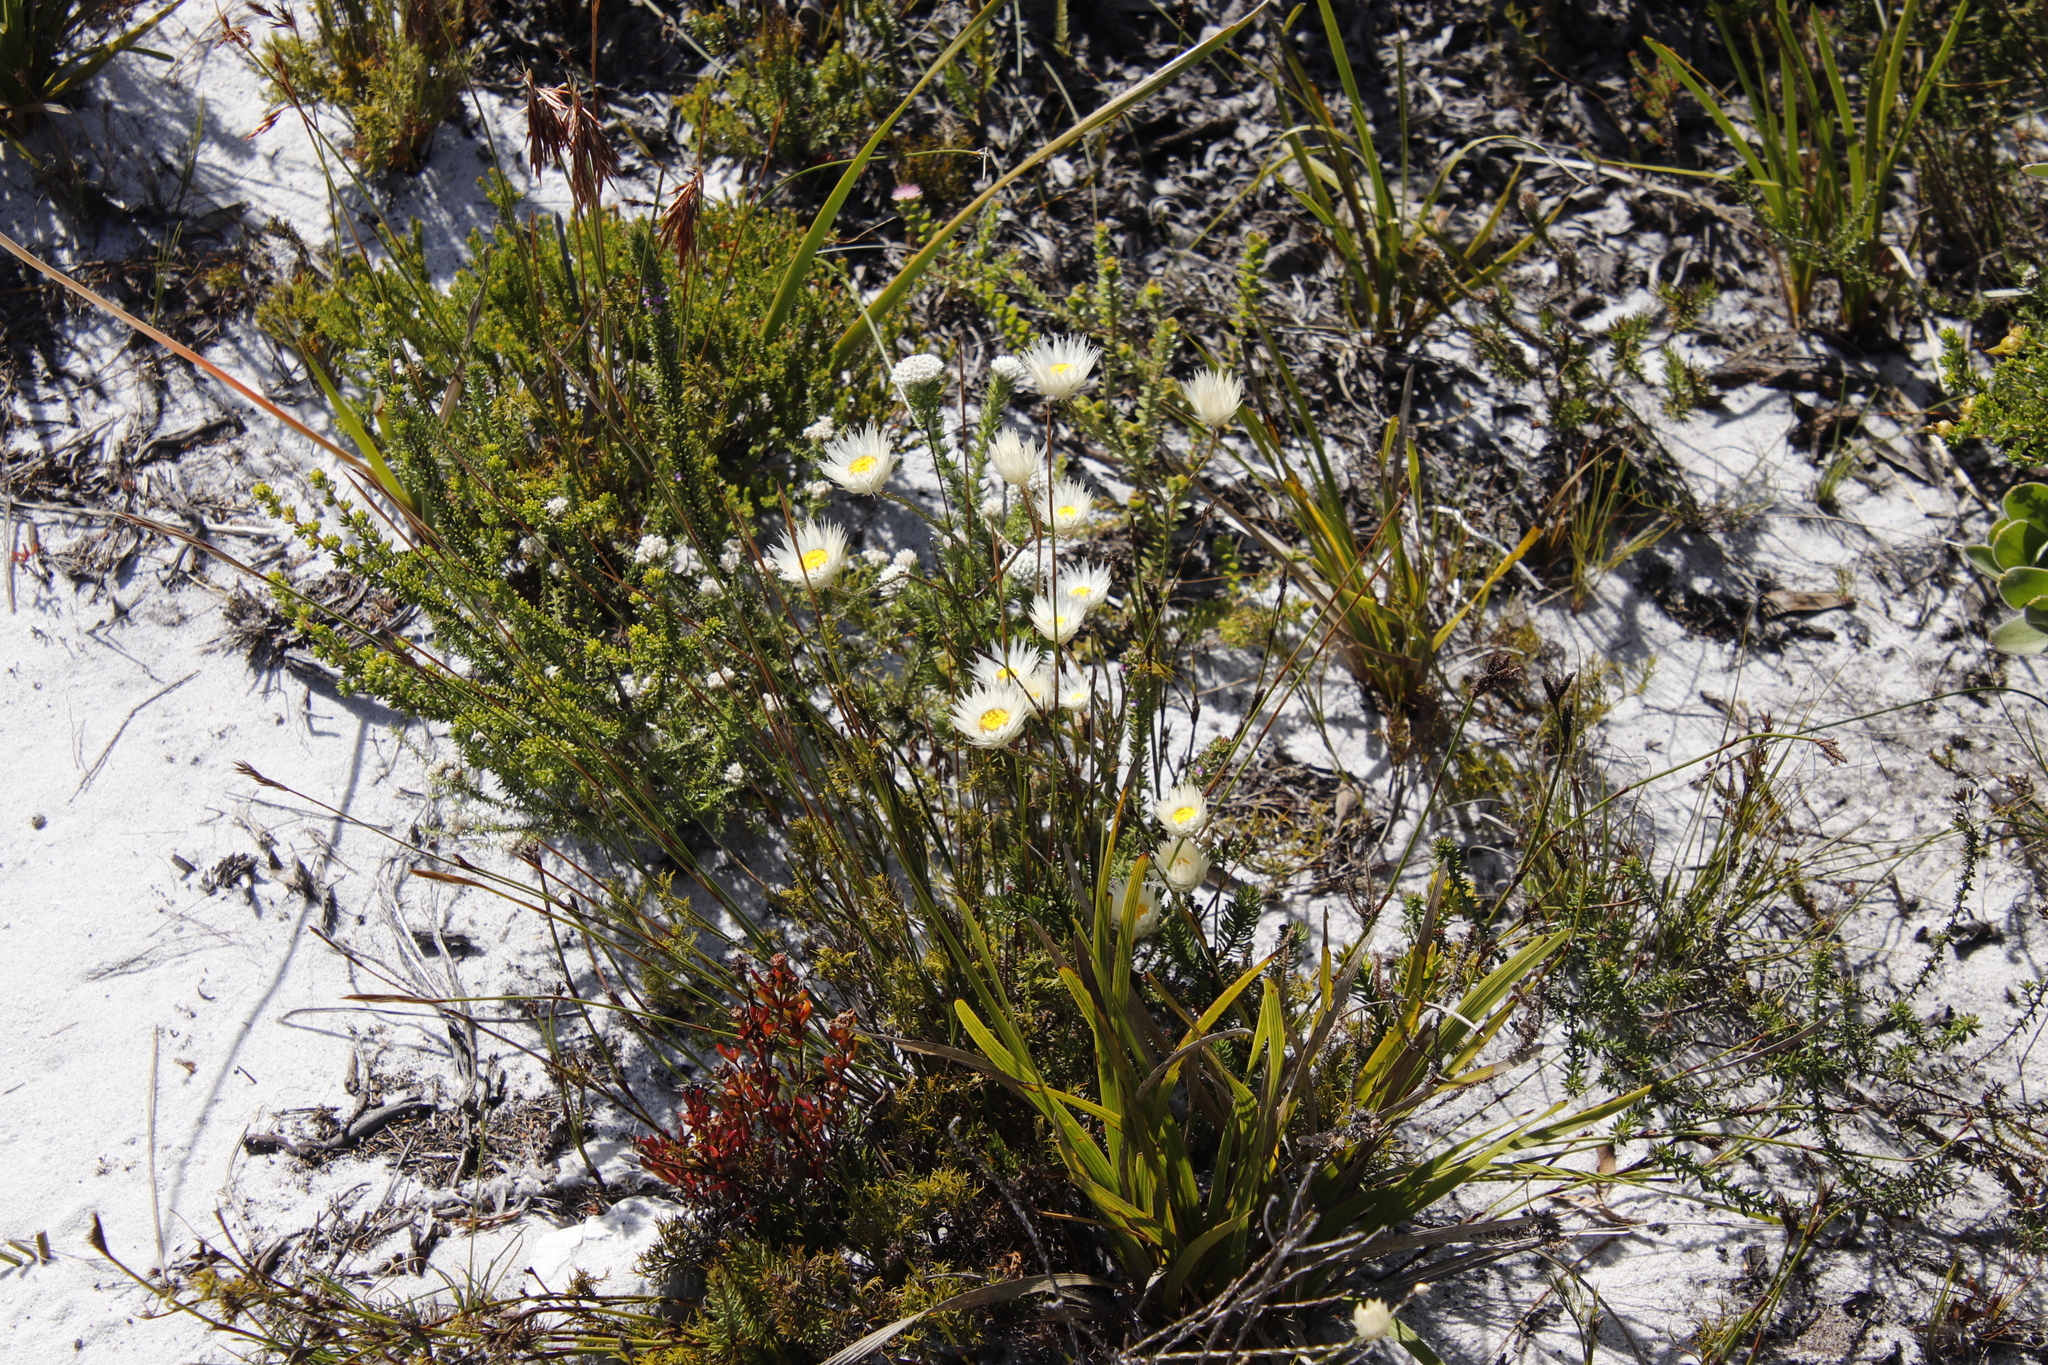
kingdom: Plantae
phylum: Tracheophyta
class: Magnoliopsida
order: Asterales
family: Asteraceae
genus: Edmondia
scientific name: Edmondia sesamoides
